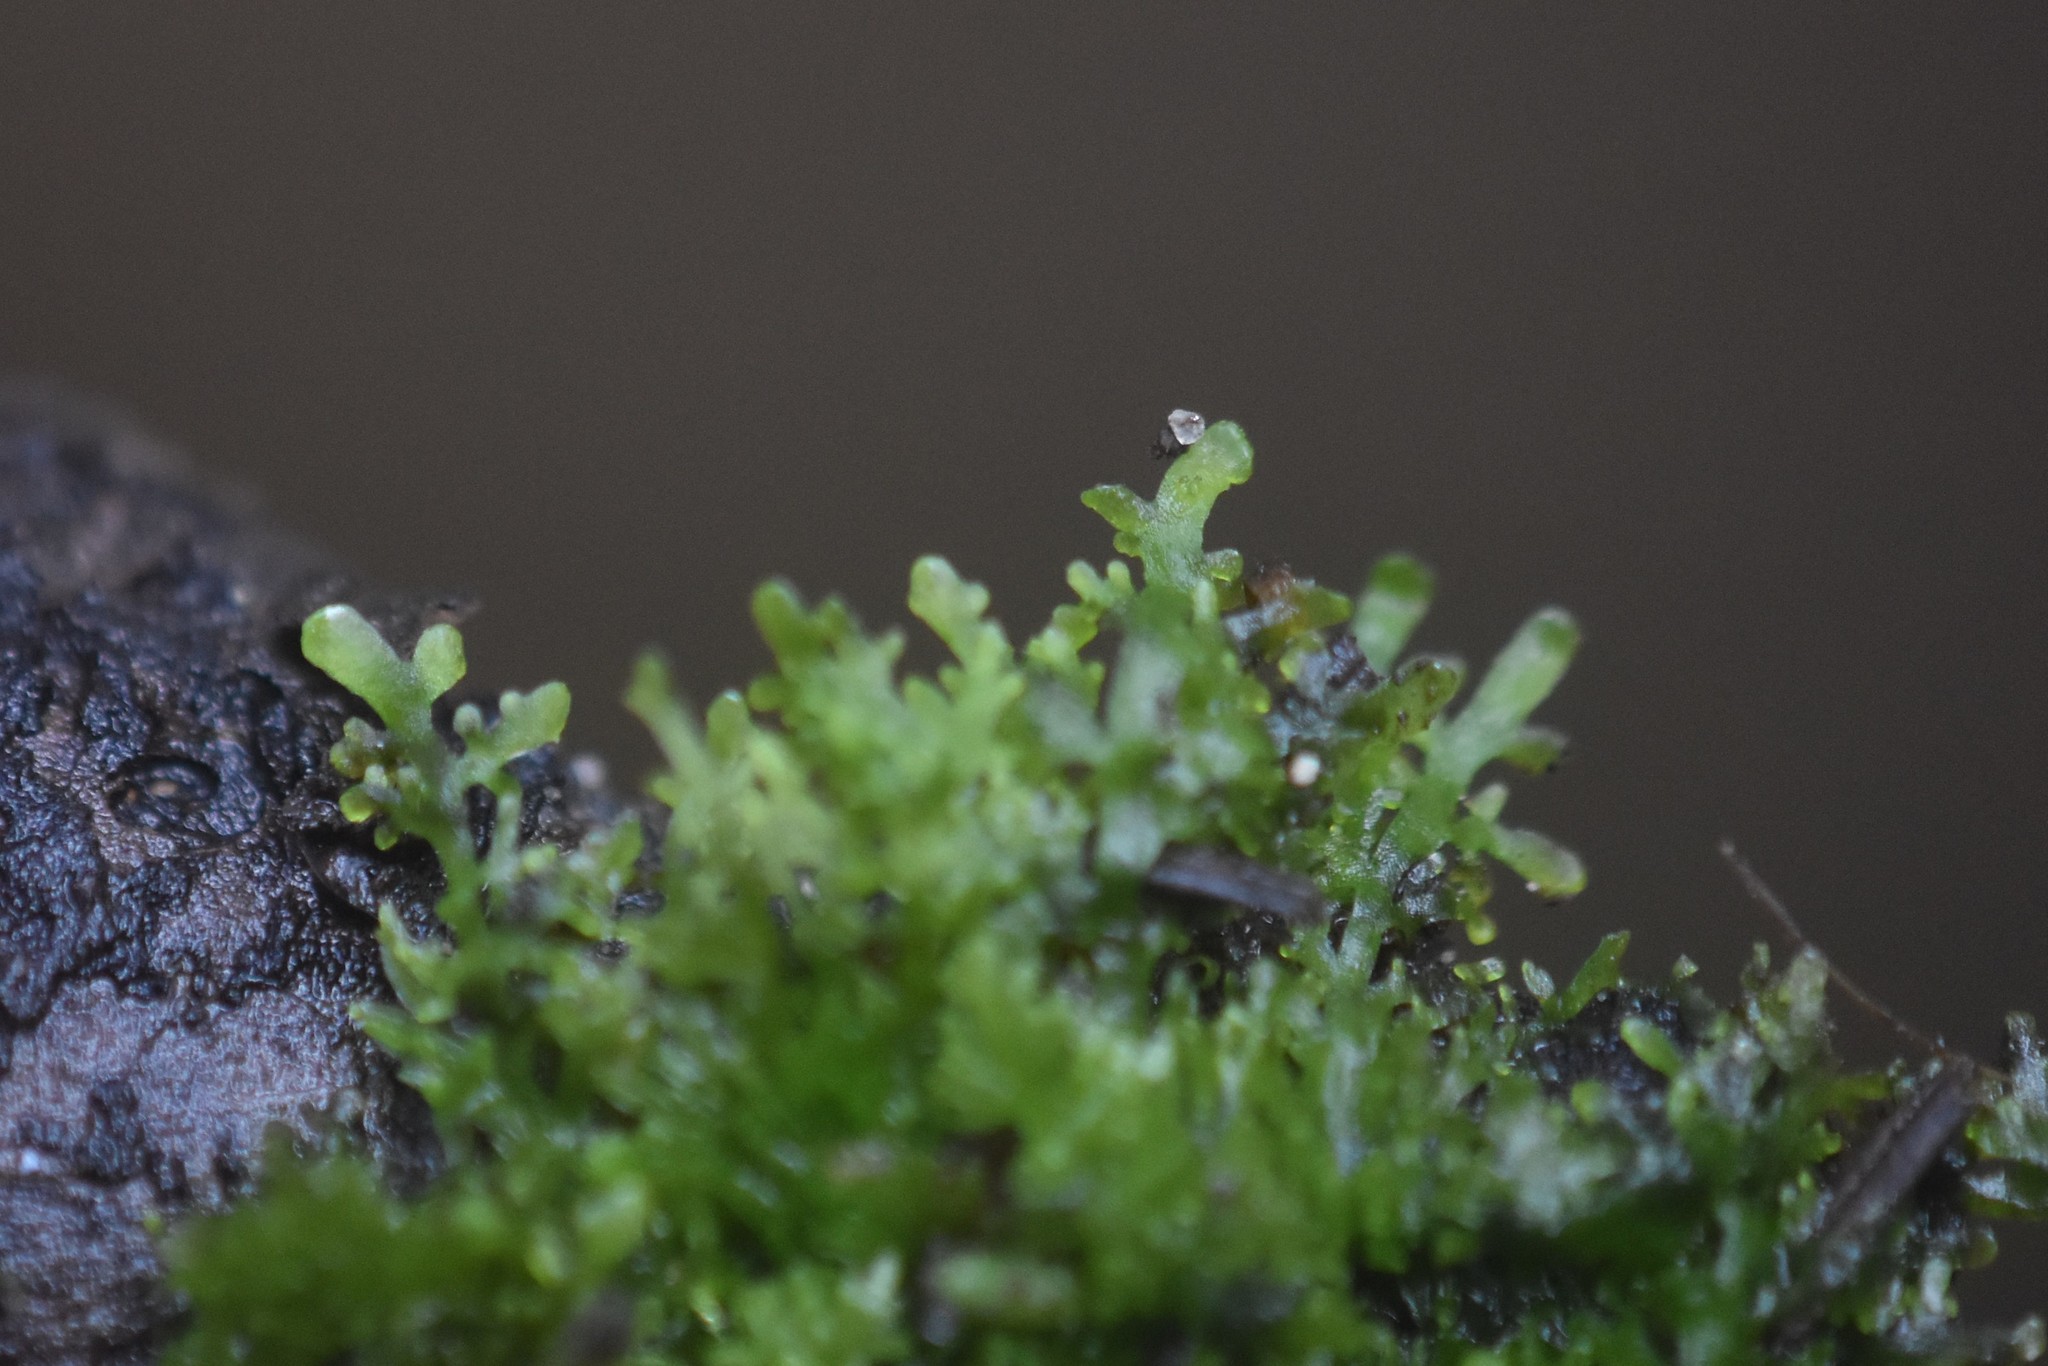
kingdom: Plantae
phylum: Marchantiophyta
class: Jungermanniopsida
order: Metzgeriales
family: Aneuraceae
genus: Riccardia
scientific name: Riccardia chamedryfolia
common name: Jagged germanderwort
